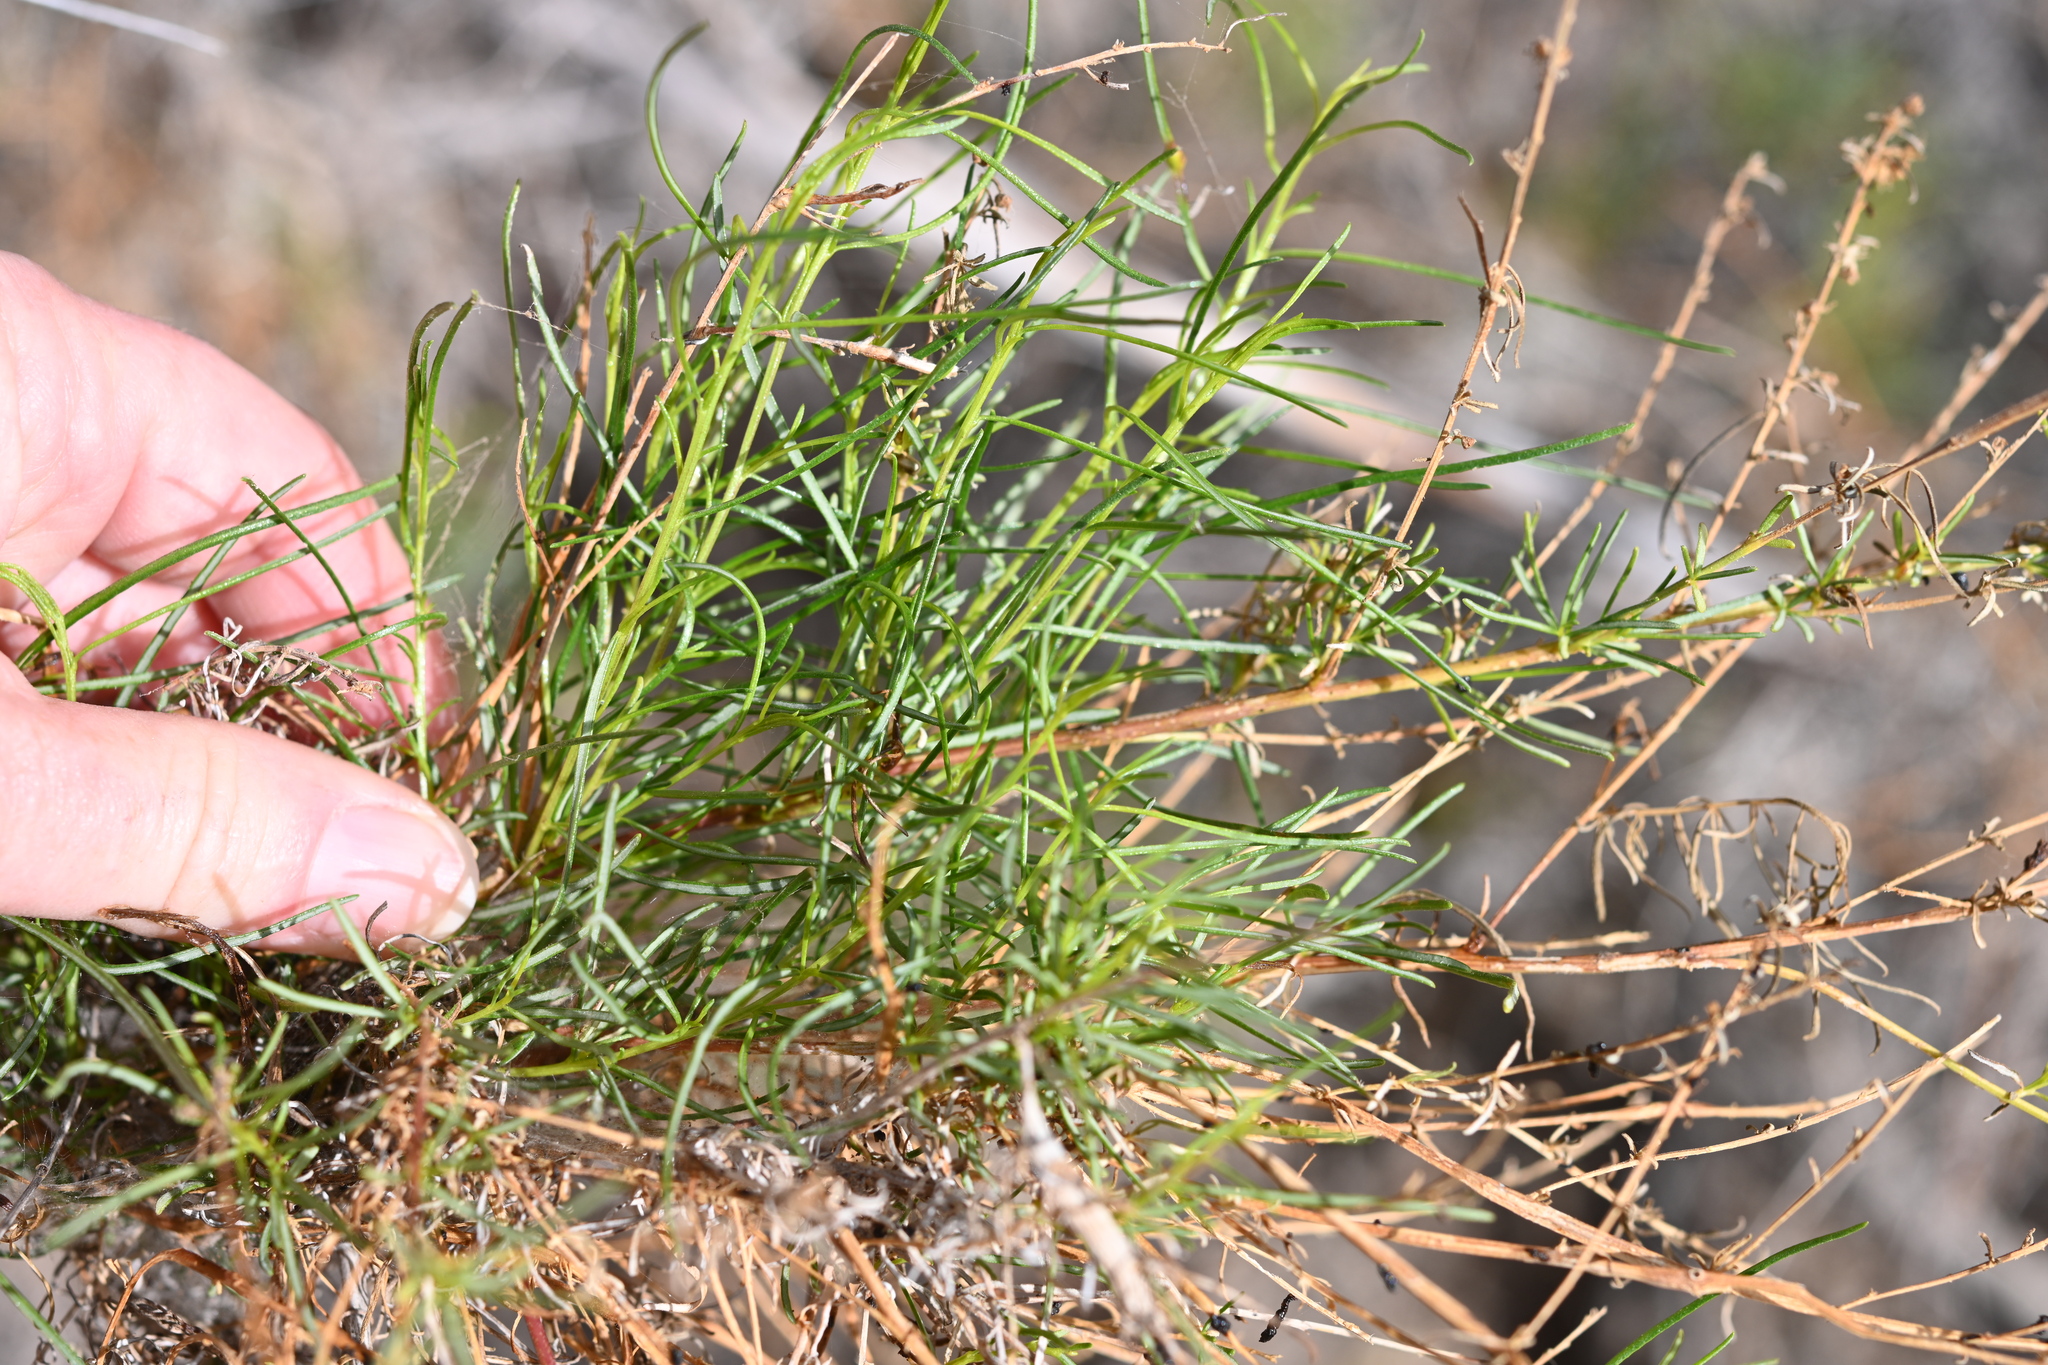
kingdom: Plantae
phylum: Tracheophyta
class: Magnoliopsida
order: Asterales
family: Asteraceae
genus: Ambrosia
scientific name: Ambrosia monogyra
